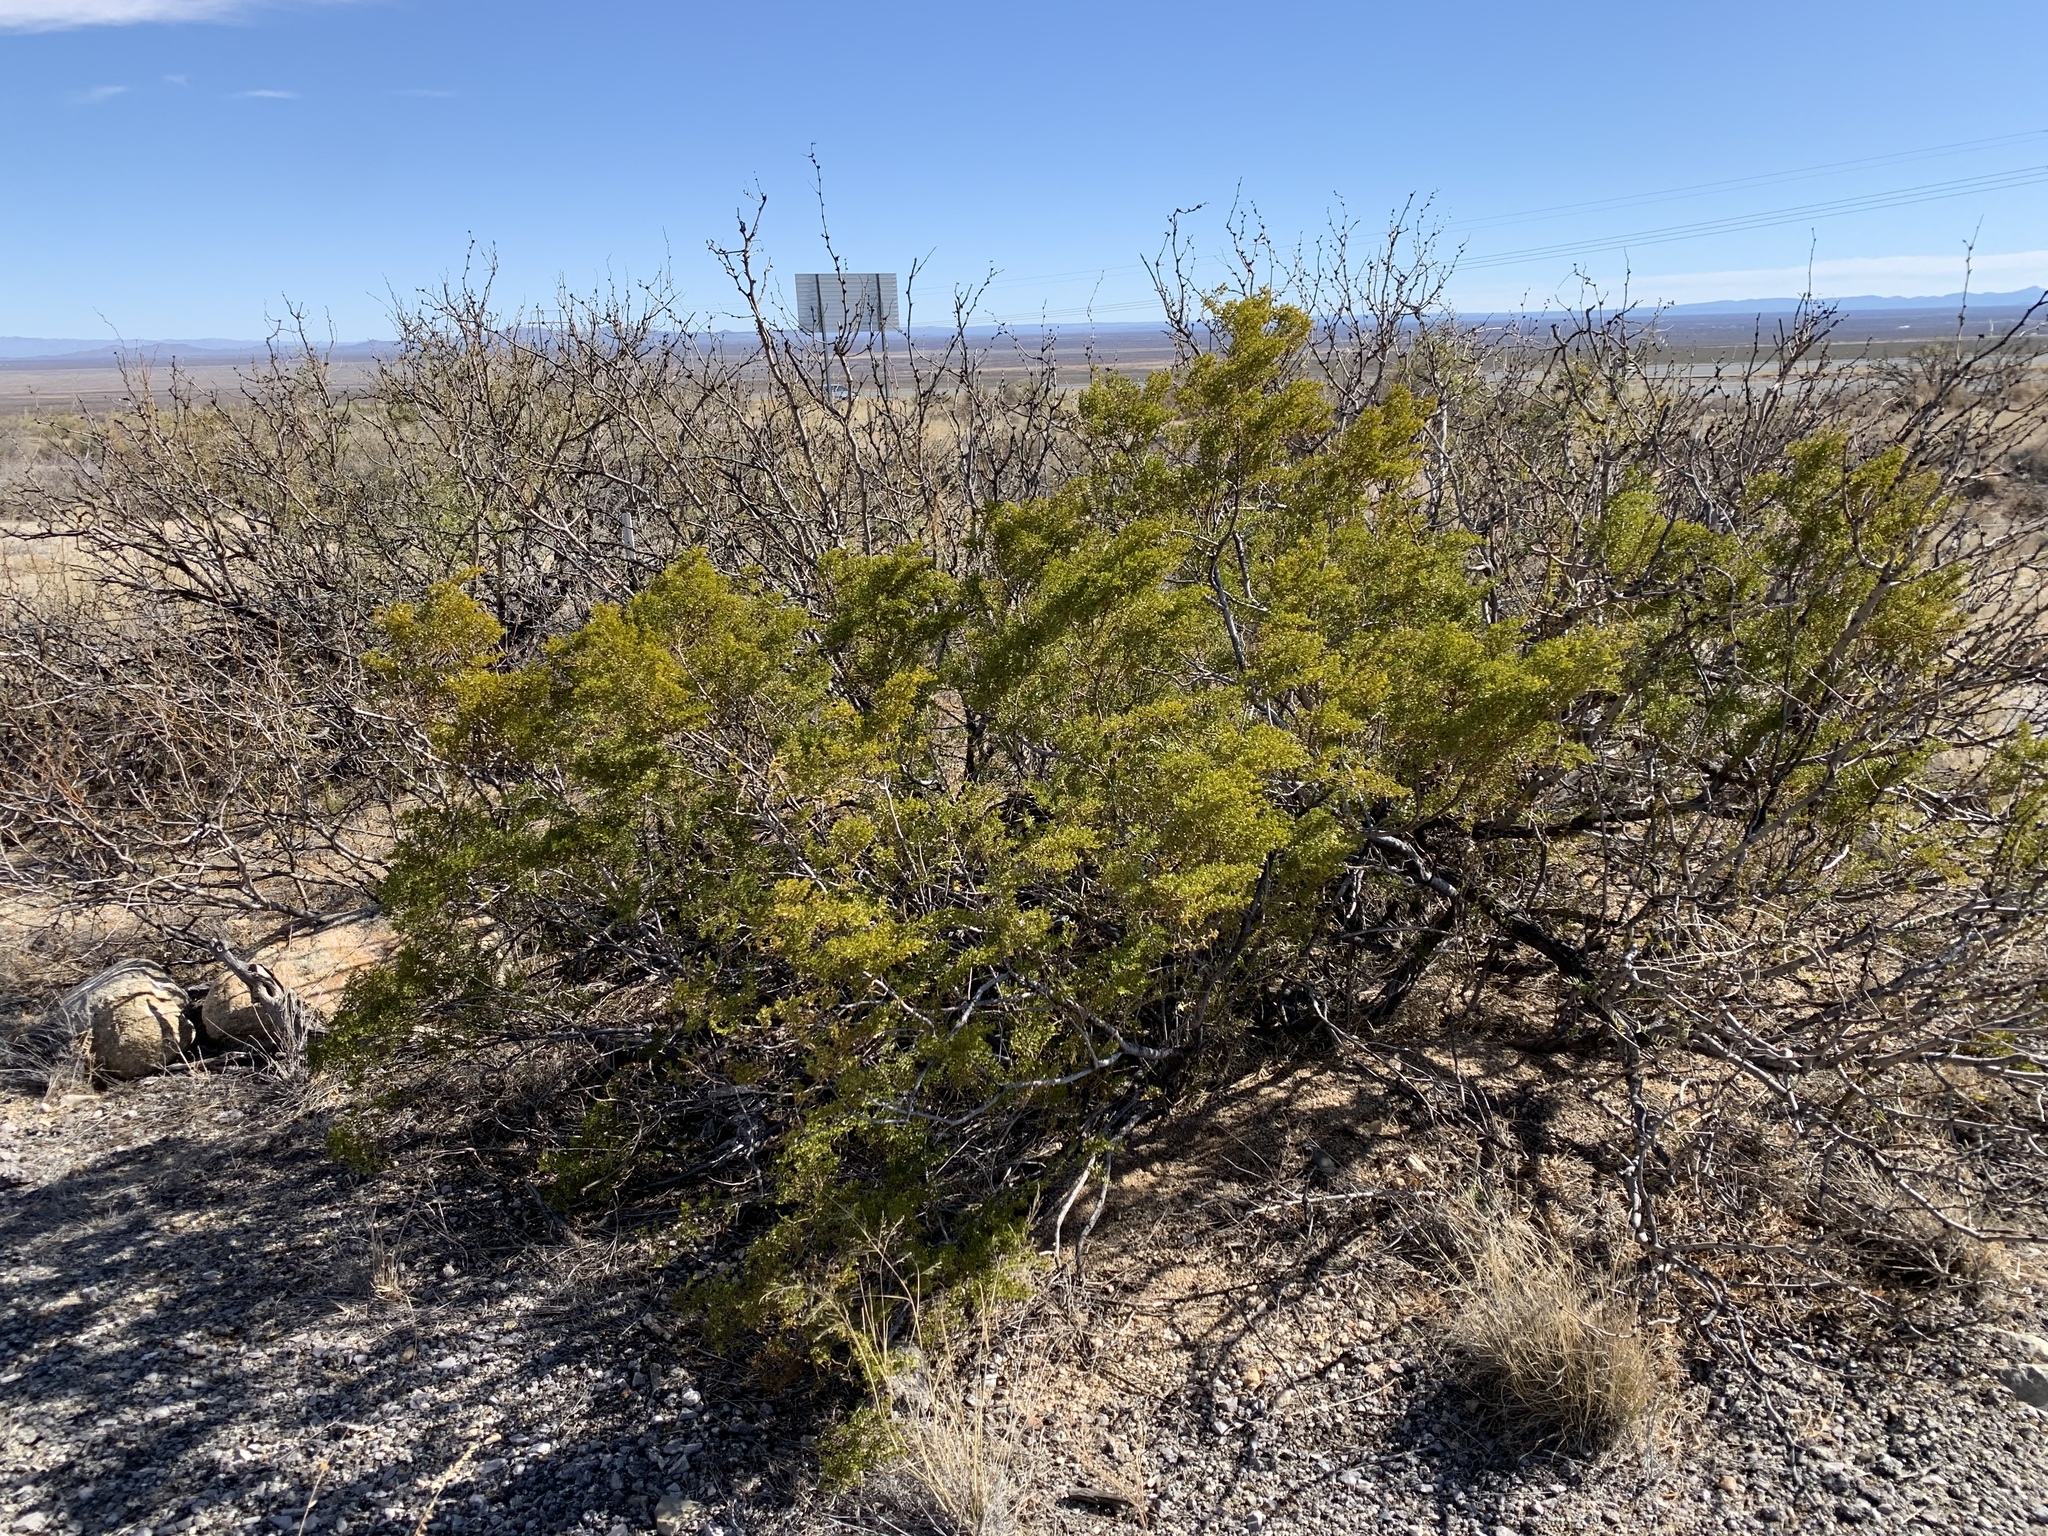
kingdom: Plantae
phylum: Tracheophyta
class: Magnoliopsida
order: Zygophyllales
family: Zygophyllaceae
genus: Larrea
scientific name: Larrea tridentata
